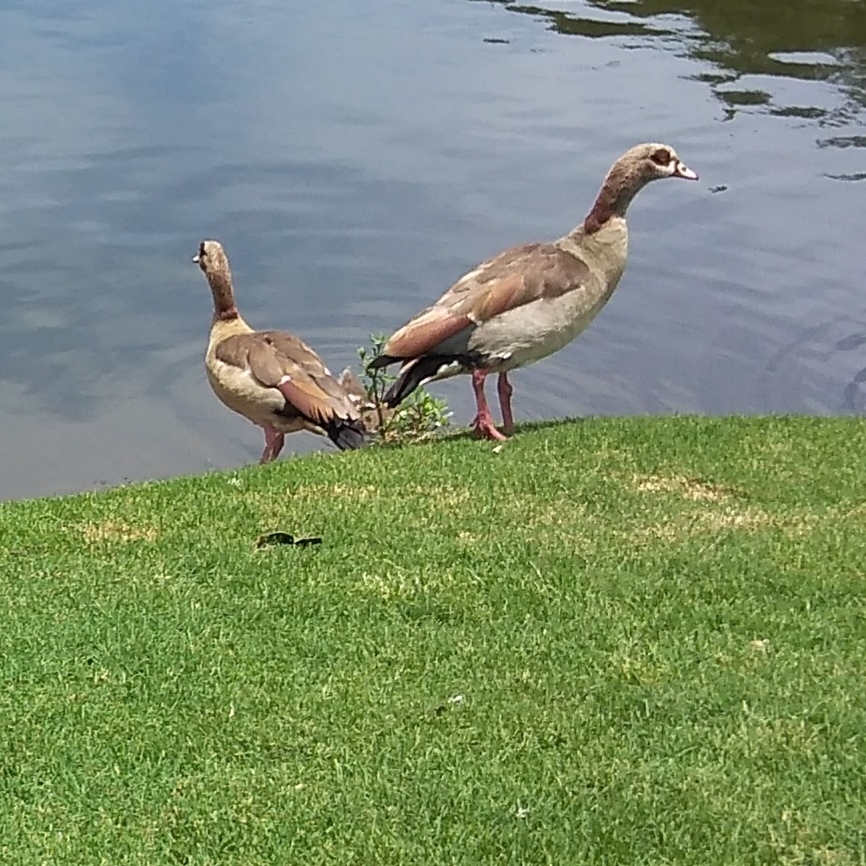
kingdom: Animalia
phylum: Chordata
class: Aves
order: Anseriformes
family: Anatidae
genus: Alopochen
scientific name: Alopochen aegyptiaca
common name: Egyptian goose
